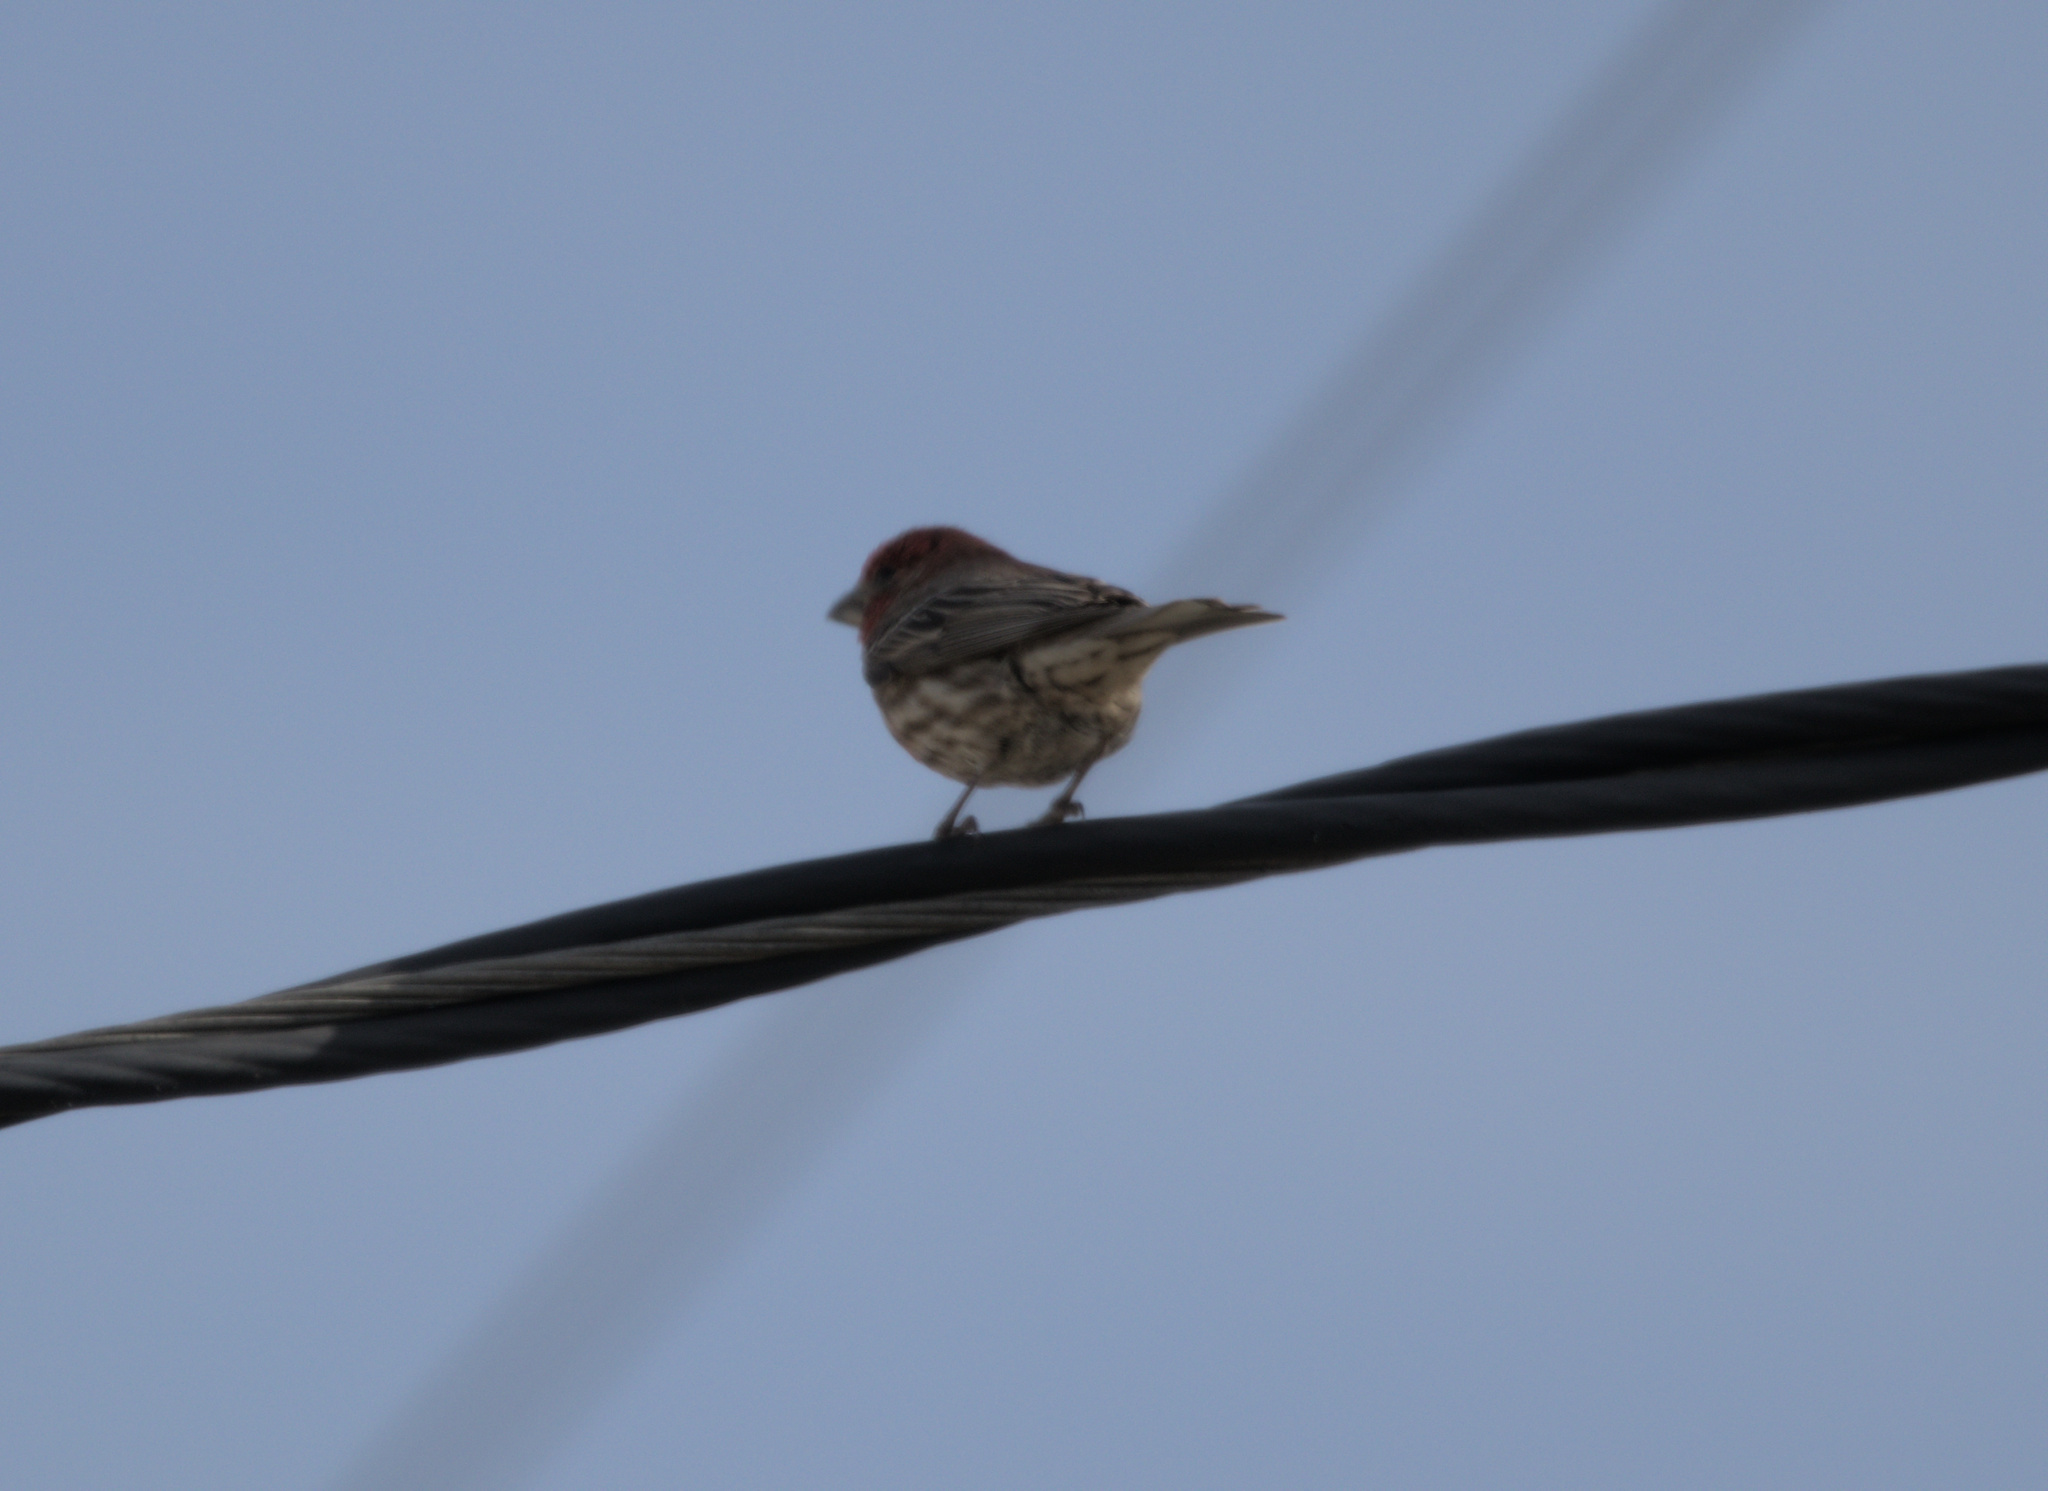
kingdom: Animalia
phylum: Chordata
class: Aves
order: Passeriformes
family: Fringillidae
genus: Haemorhous
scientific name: Haemorhous mexicanus
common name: House finch
